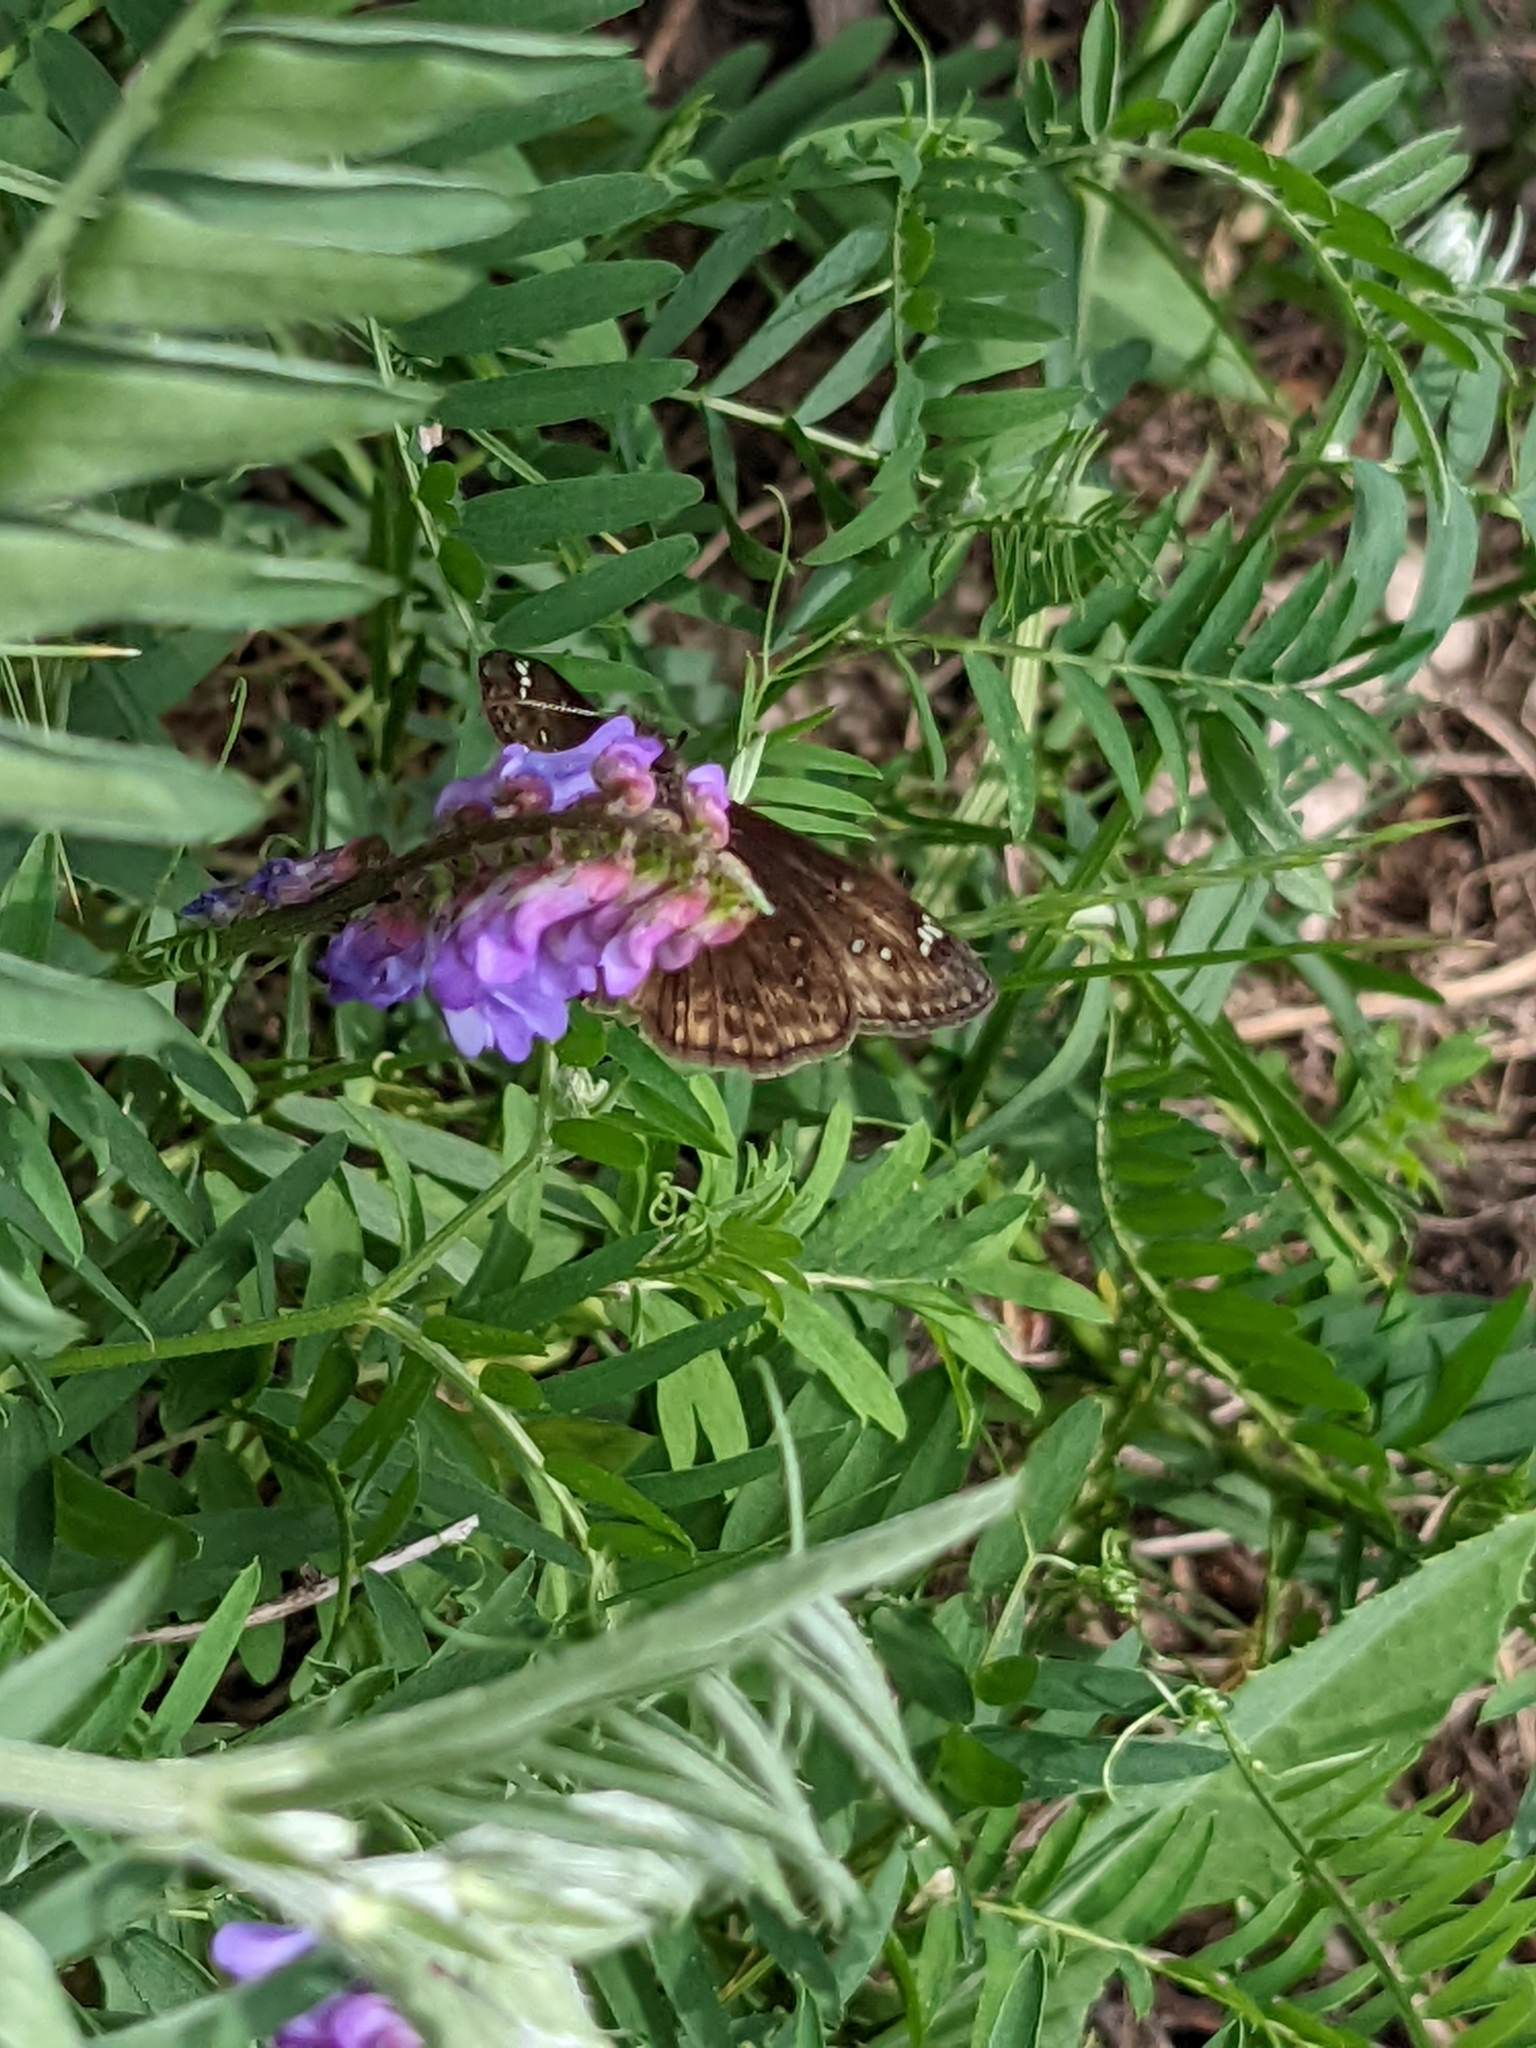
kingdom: Animalia
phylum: Arthropoda
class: Insecta
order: Lepidoptera
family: Hesperiidae
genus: Erynnis
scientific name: Erynnis juvenalis
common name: Juvenal's duskywing
